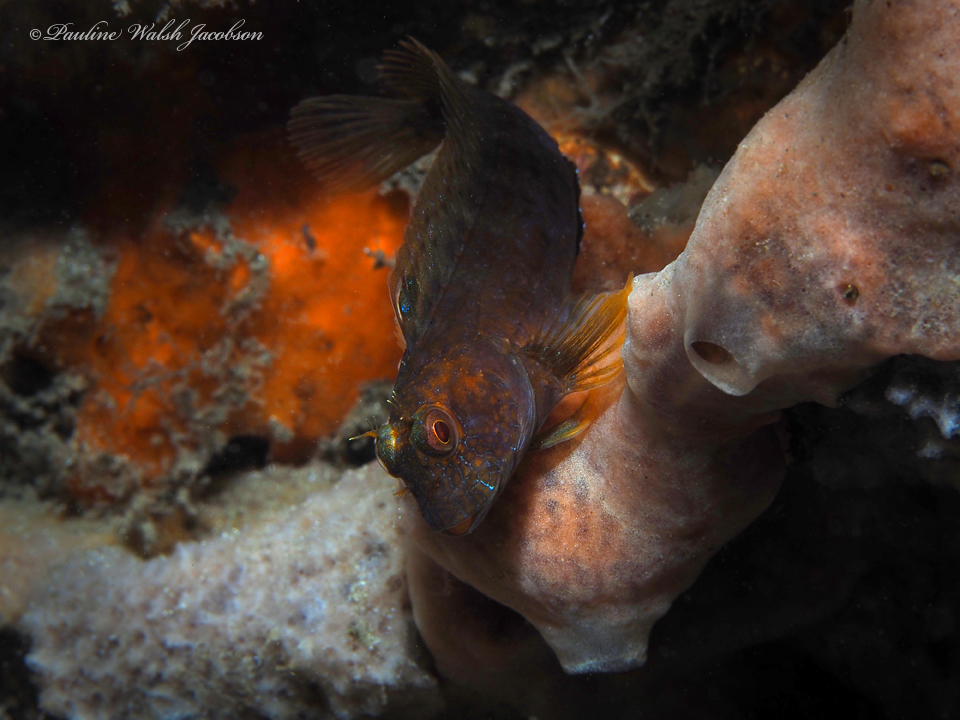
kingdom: Animalia
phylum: Chordata
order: Perciformes
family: Blenniidae
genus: Parablennius
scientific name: Parablennius marmoreus
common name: Seaweed blenny
